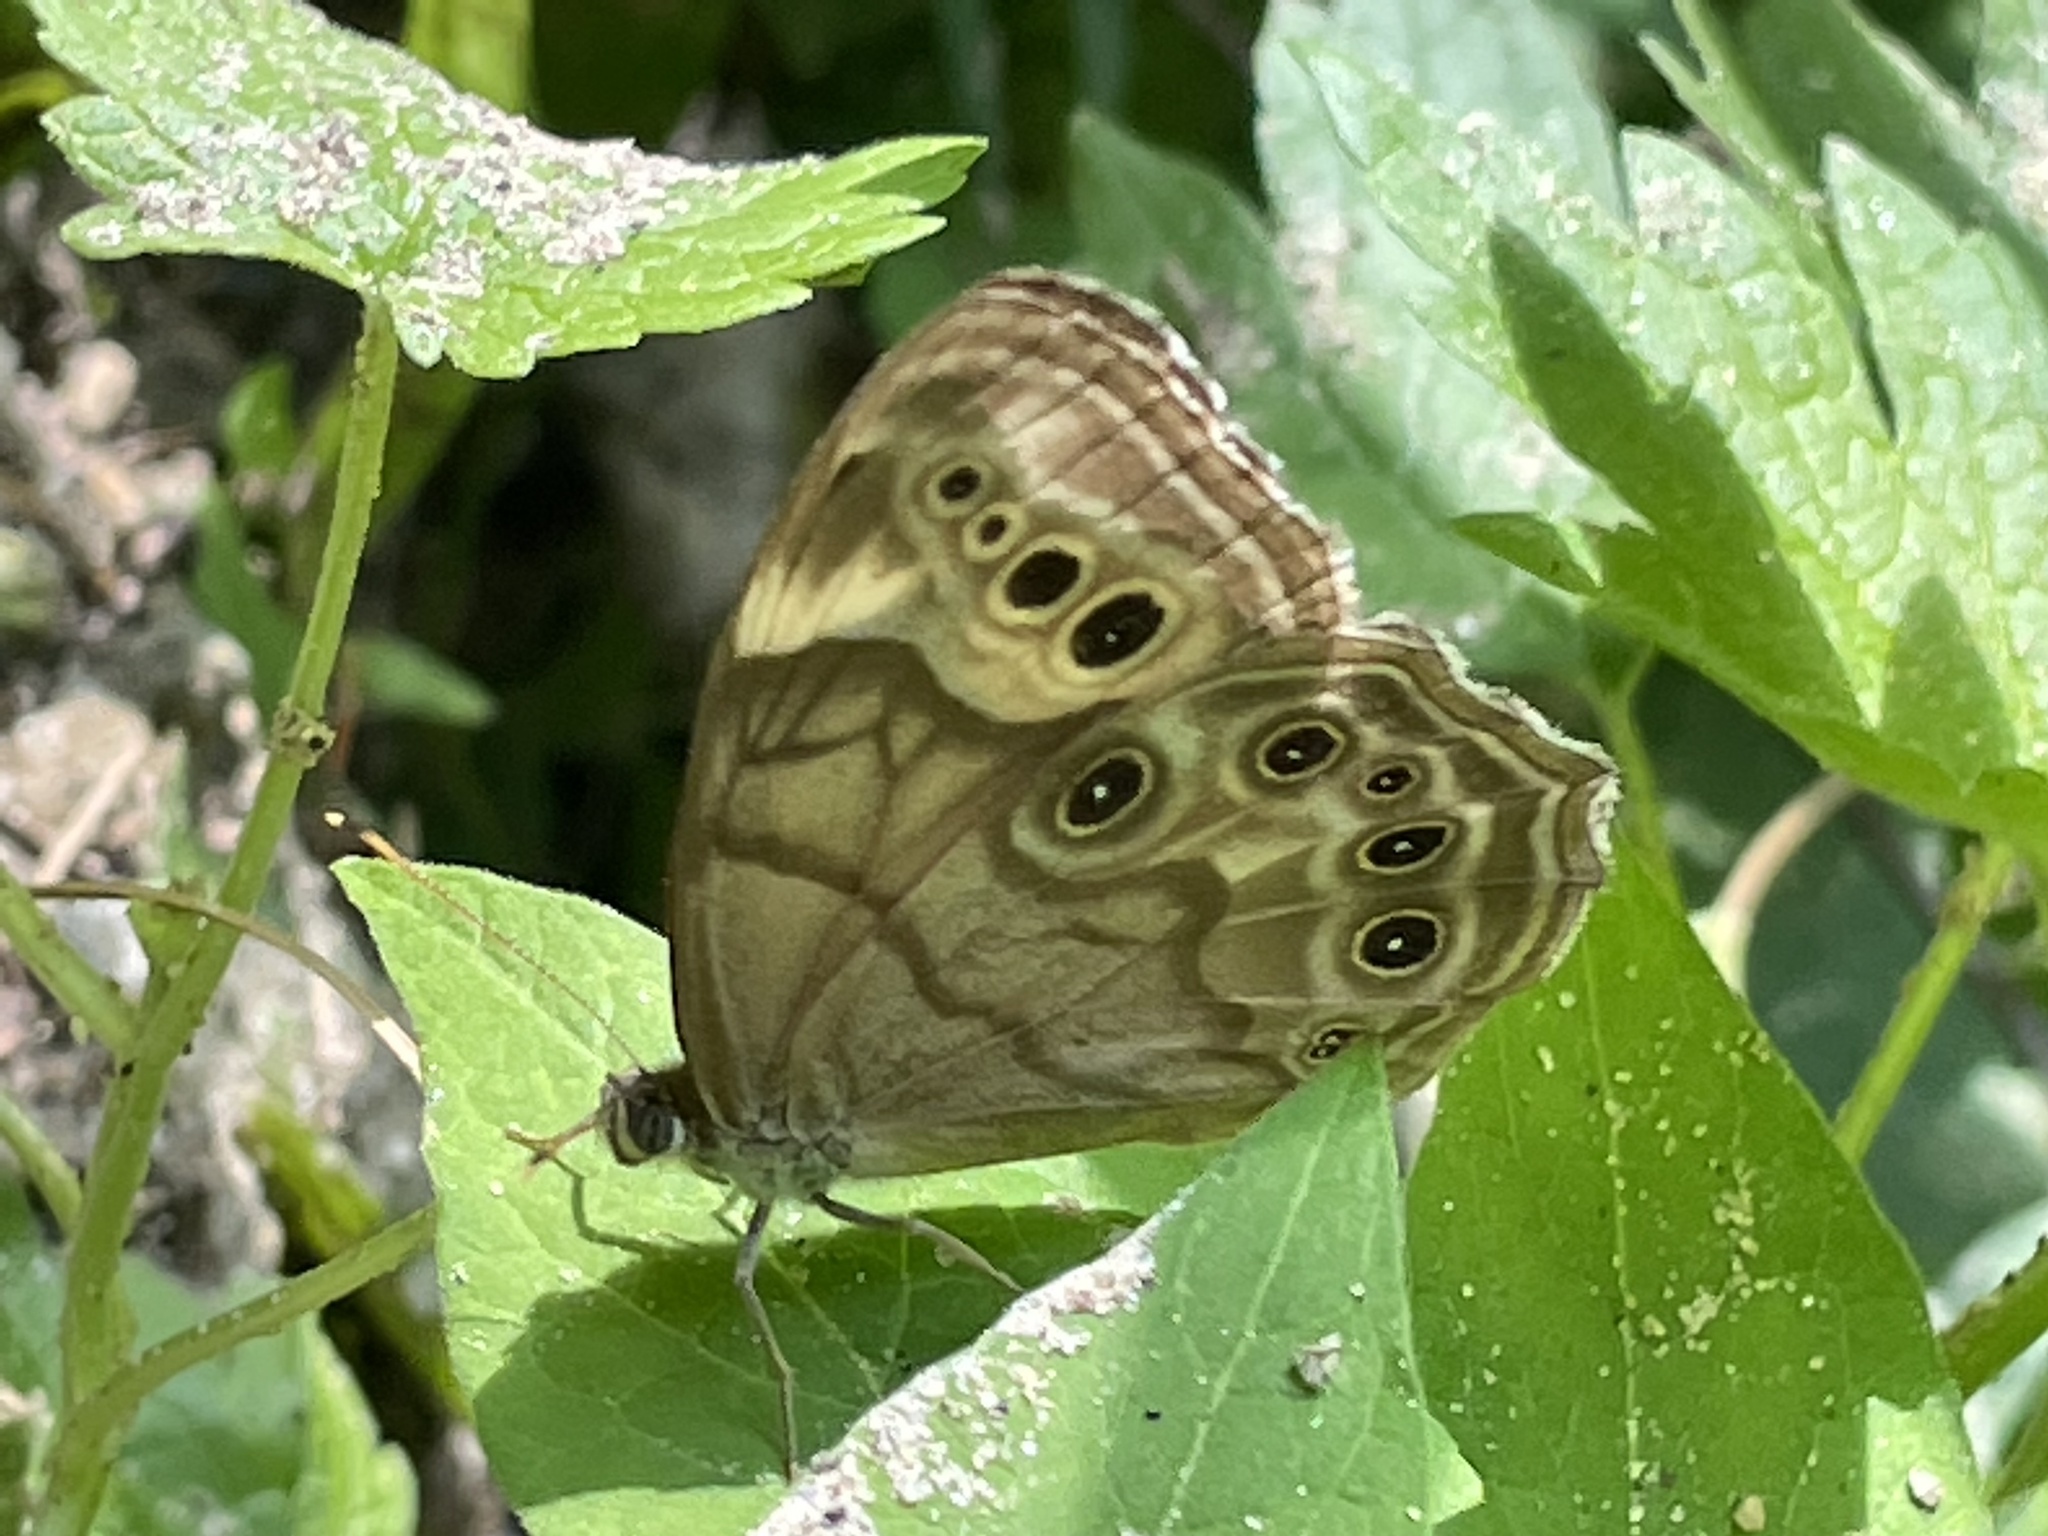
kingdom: Animalia
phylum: Arthropoda
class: Insecta
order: Lepidoptera
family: Nymphalidae
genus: Lethe
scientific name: Lethe anthedon
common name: Northern pearly-eye
